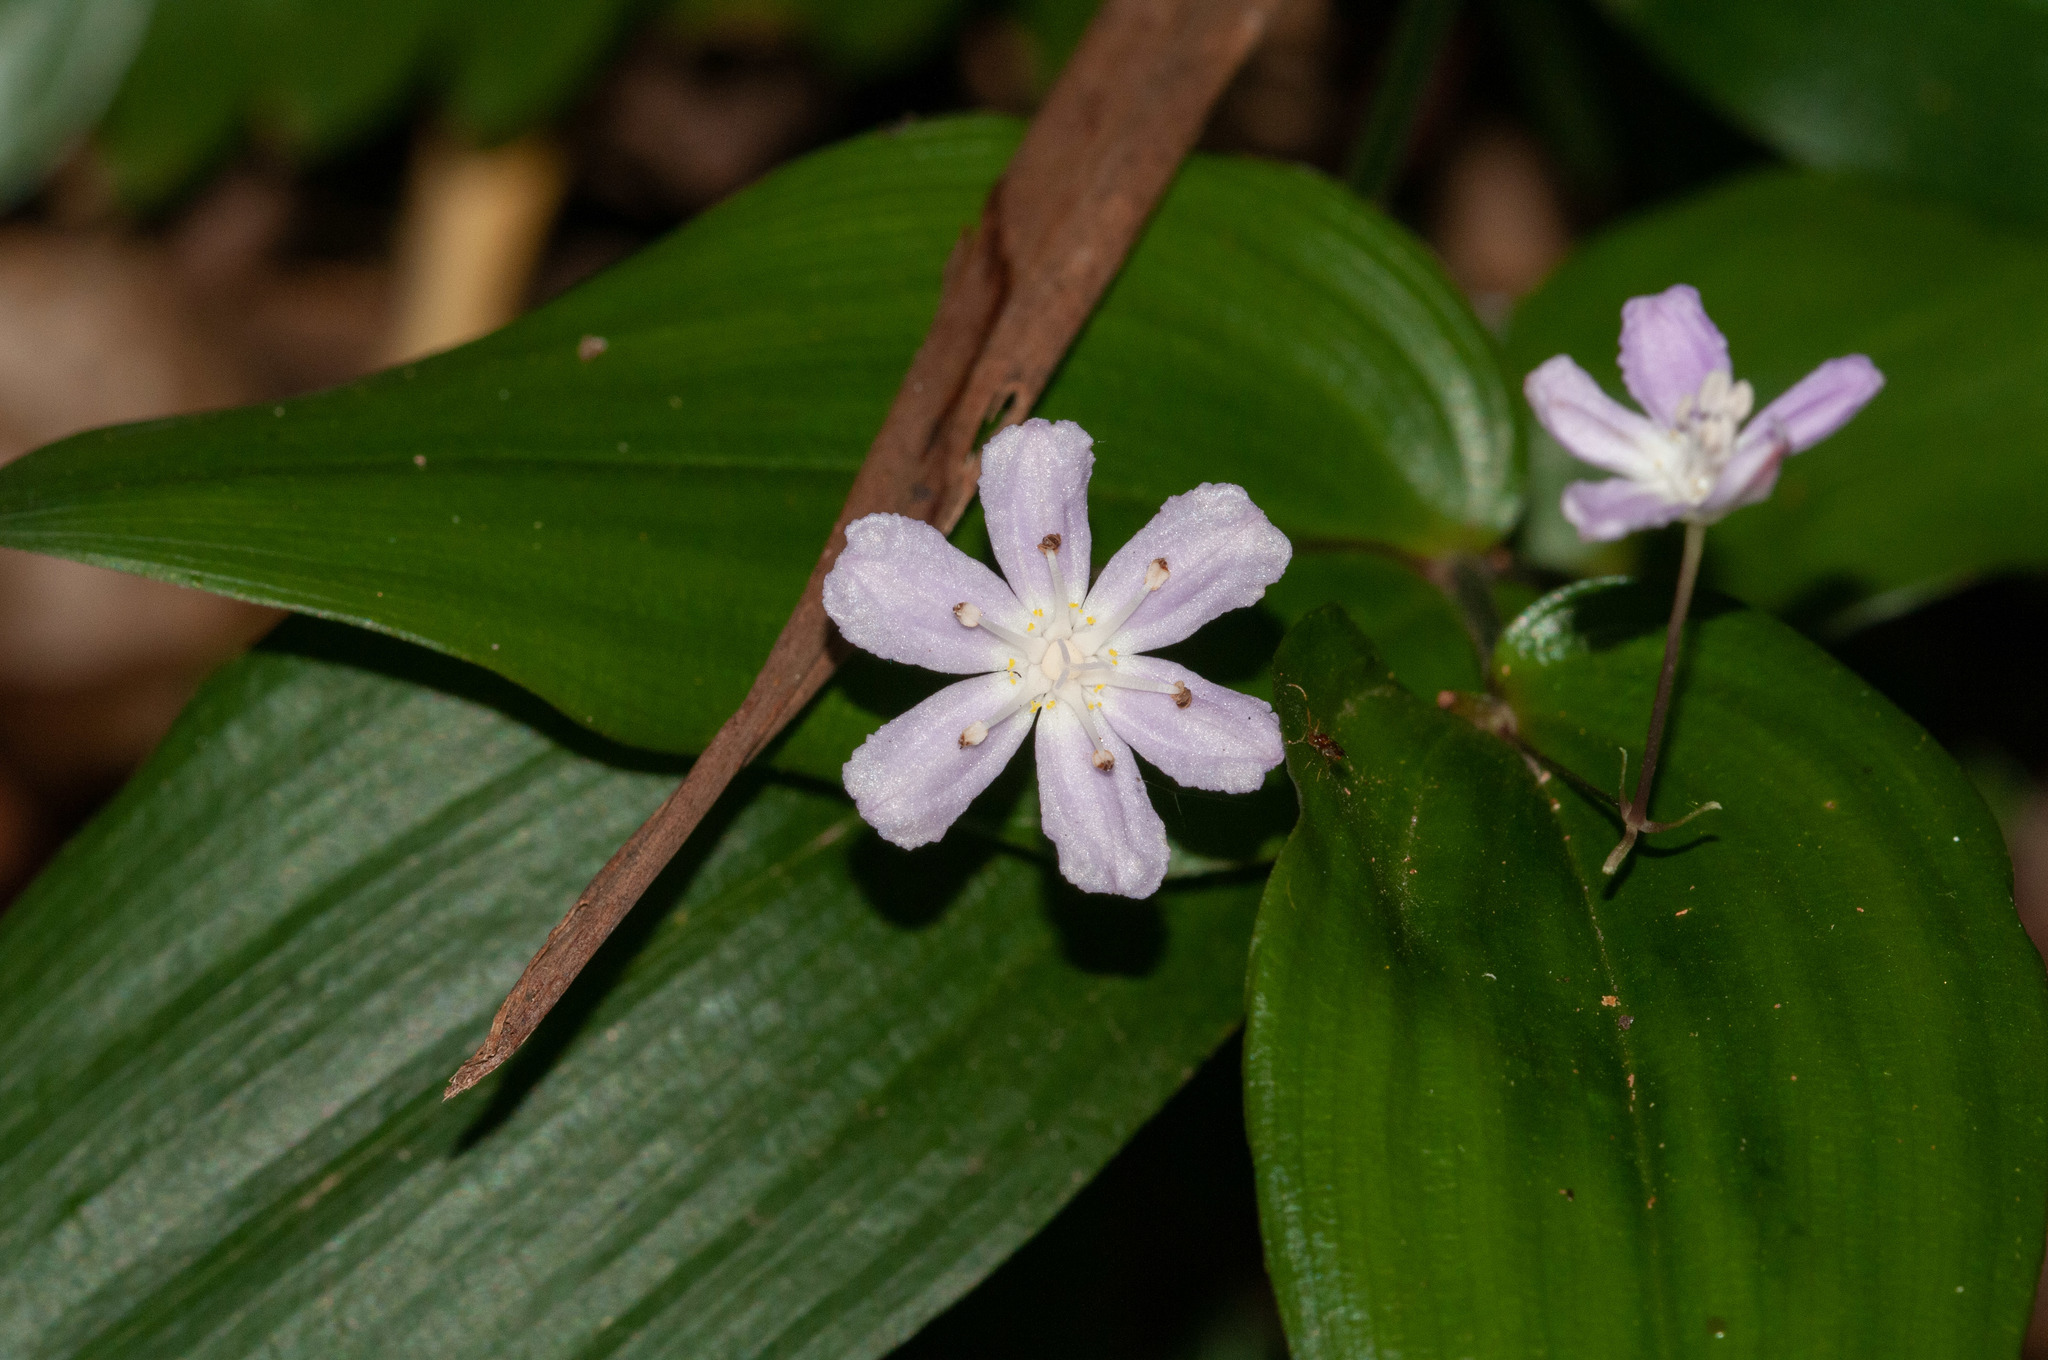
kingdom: Plantae
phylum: Tracheophyta
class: Liliopsida
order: Liliales
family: Colchicaceae
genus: Tripladenia
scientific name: Tripladenia cunninghamii
